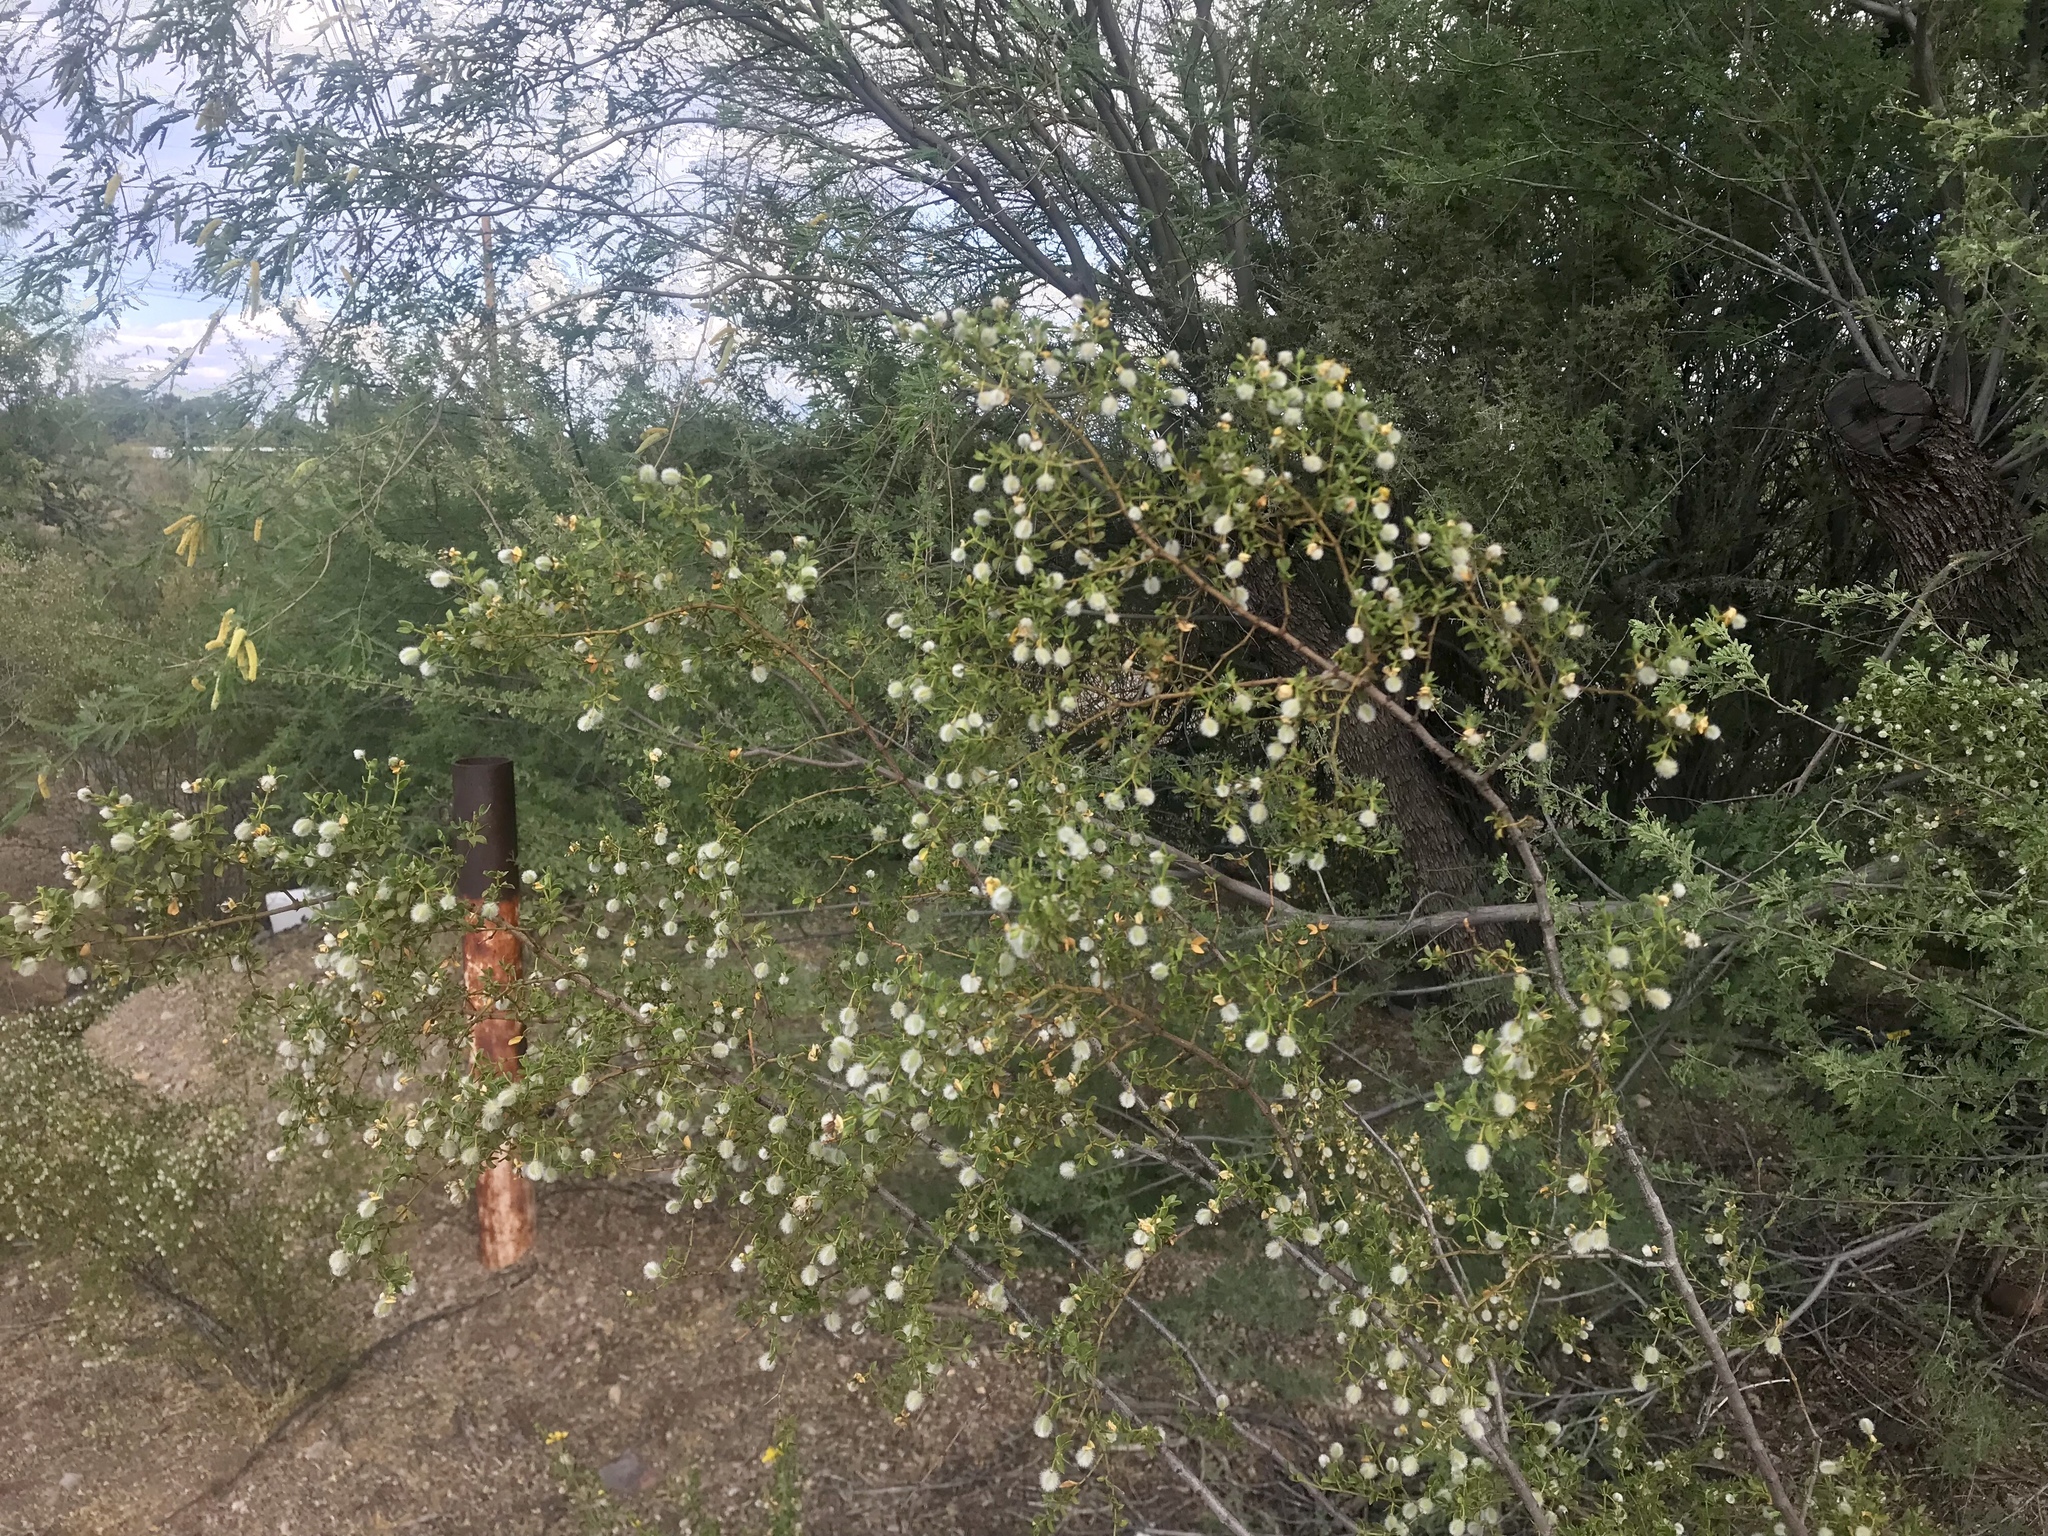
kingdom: Plantae
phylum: Tracheophyta
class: Magnoliopsida
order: Zygophyllales
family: Zygophyllaceae
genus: Larrea
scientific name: Larrea tridentata
